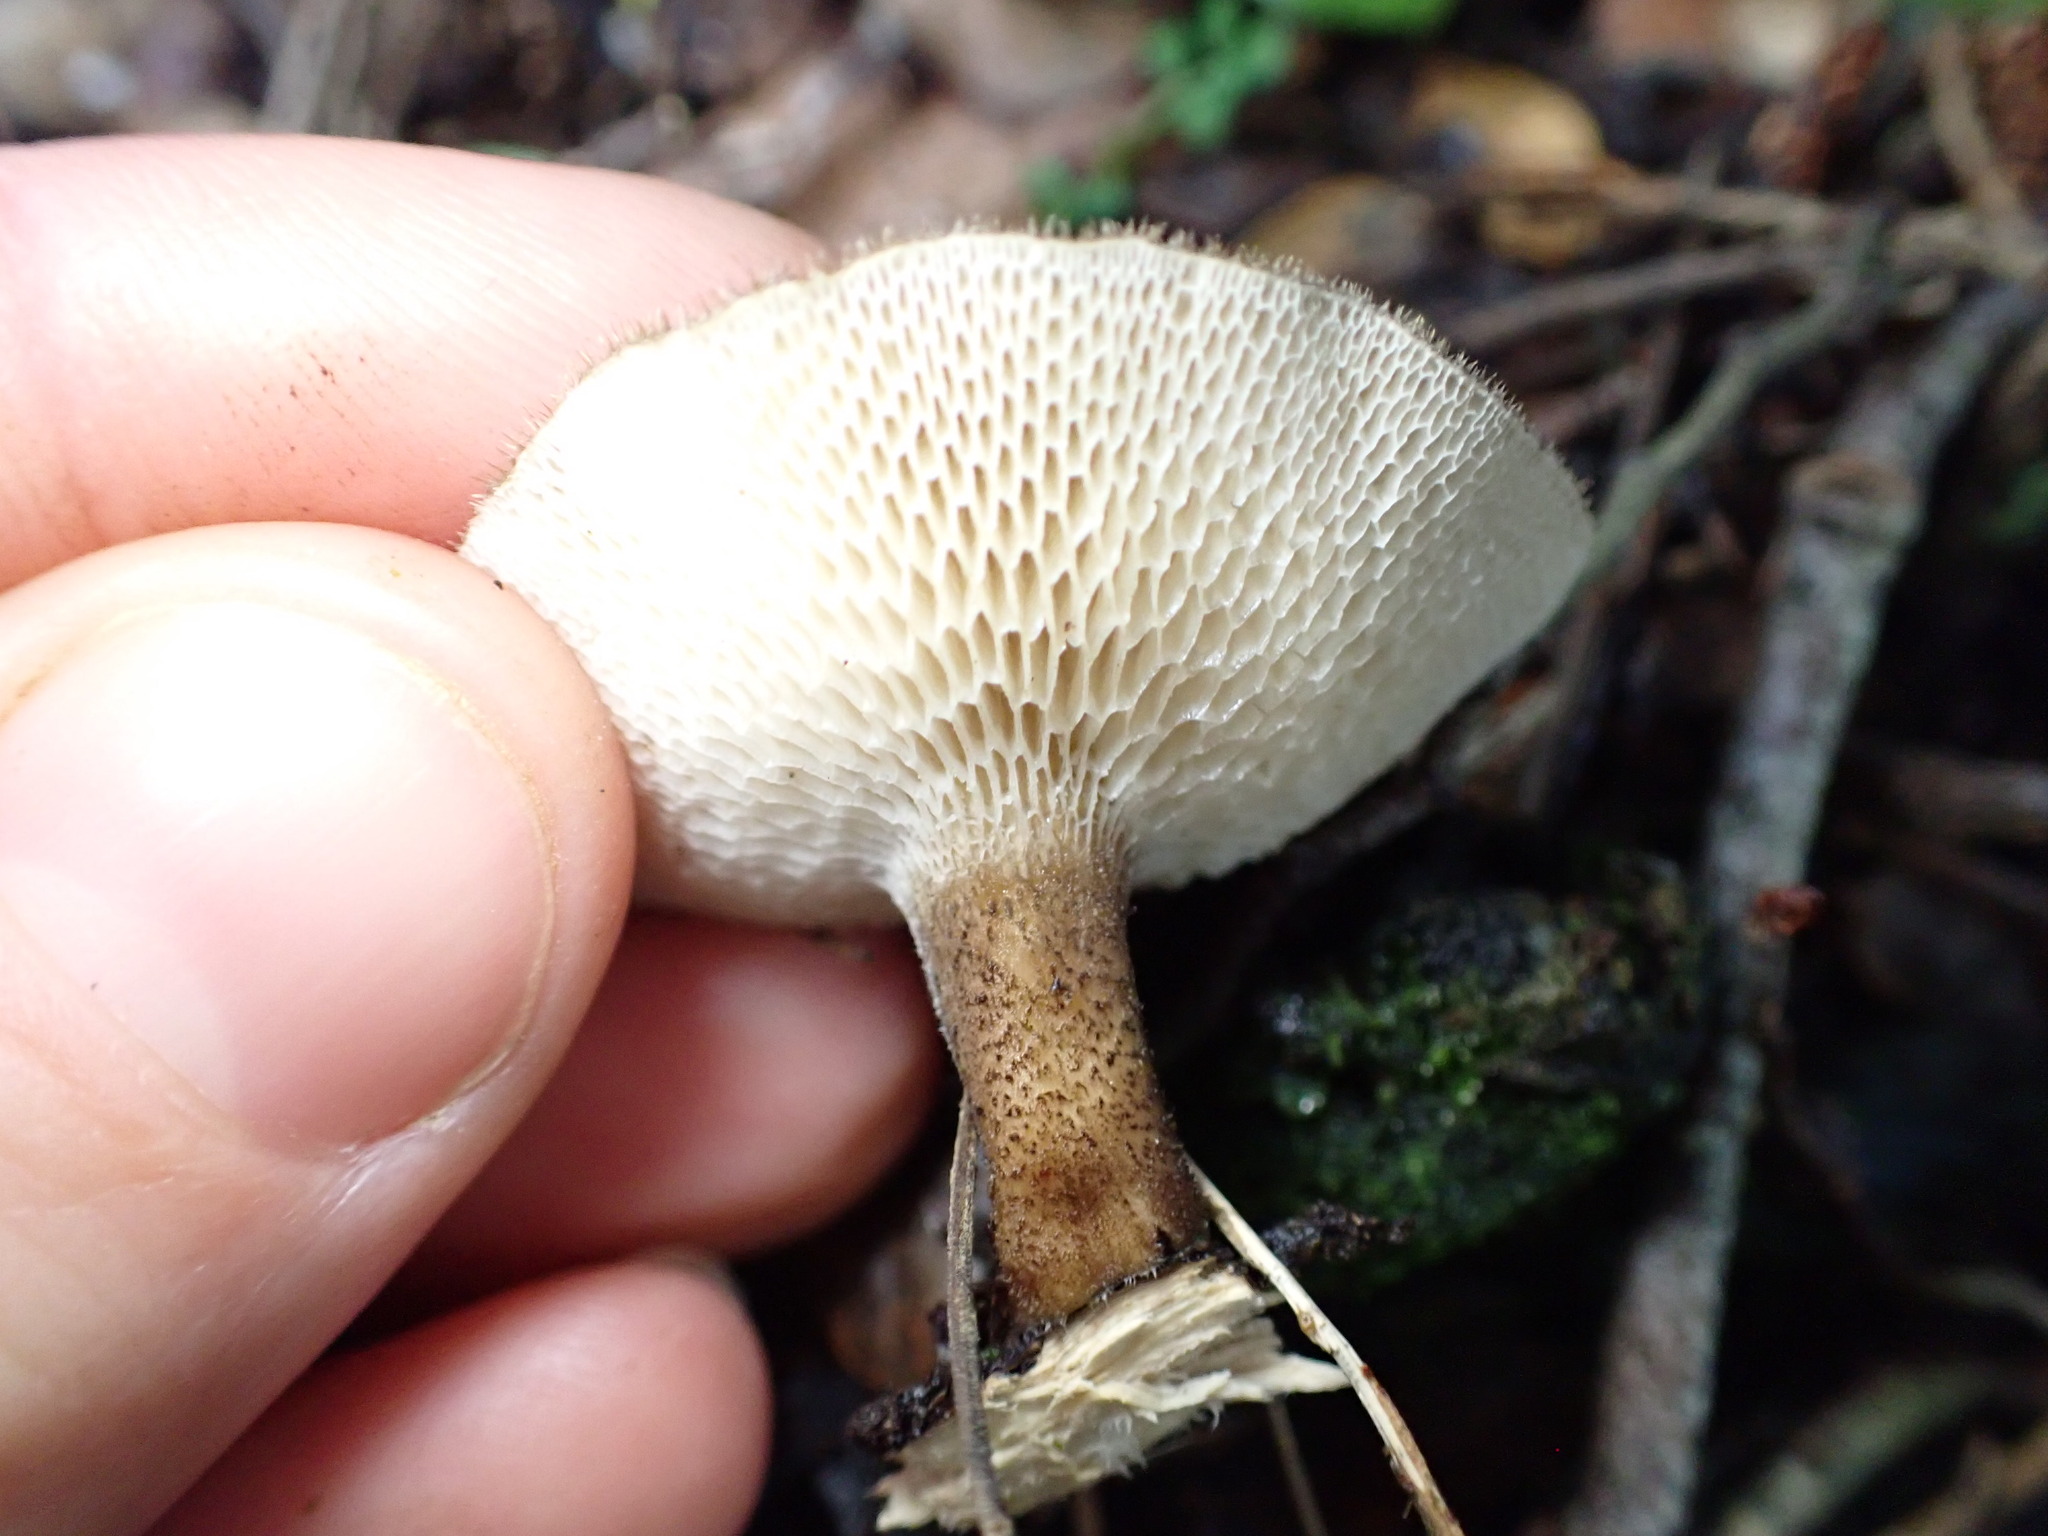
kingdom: Fungi
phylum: Basidiomycota
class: Agaricomycetes
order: Polyporales
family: Polyporaceae
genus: Lentinus
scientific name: Lentinus arcularius
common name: Spring polypore
